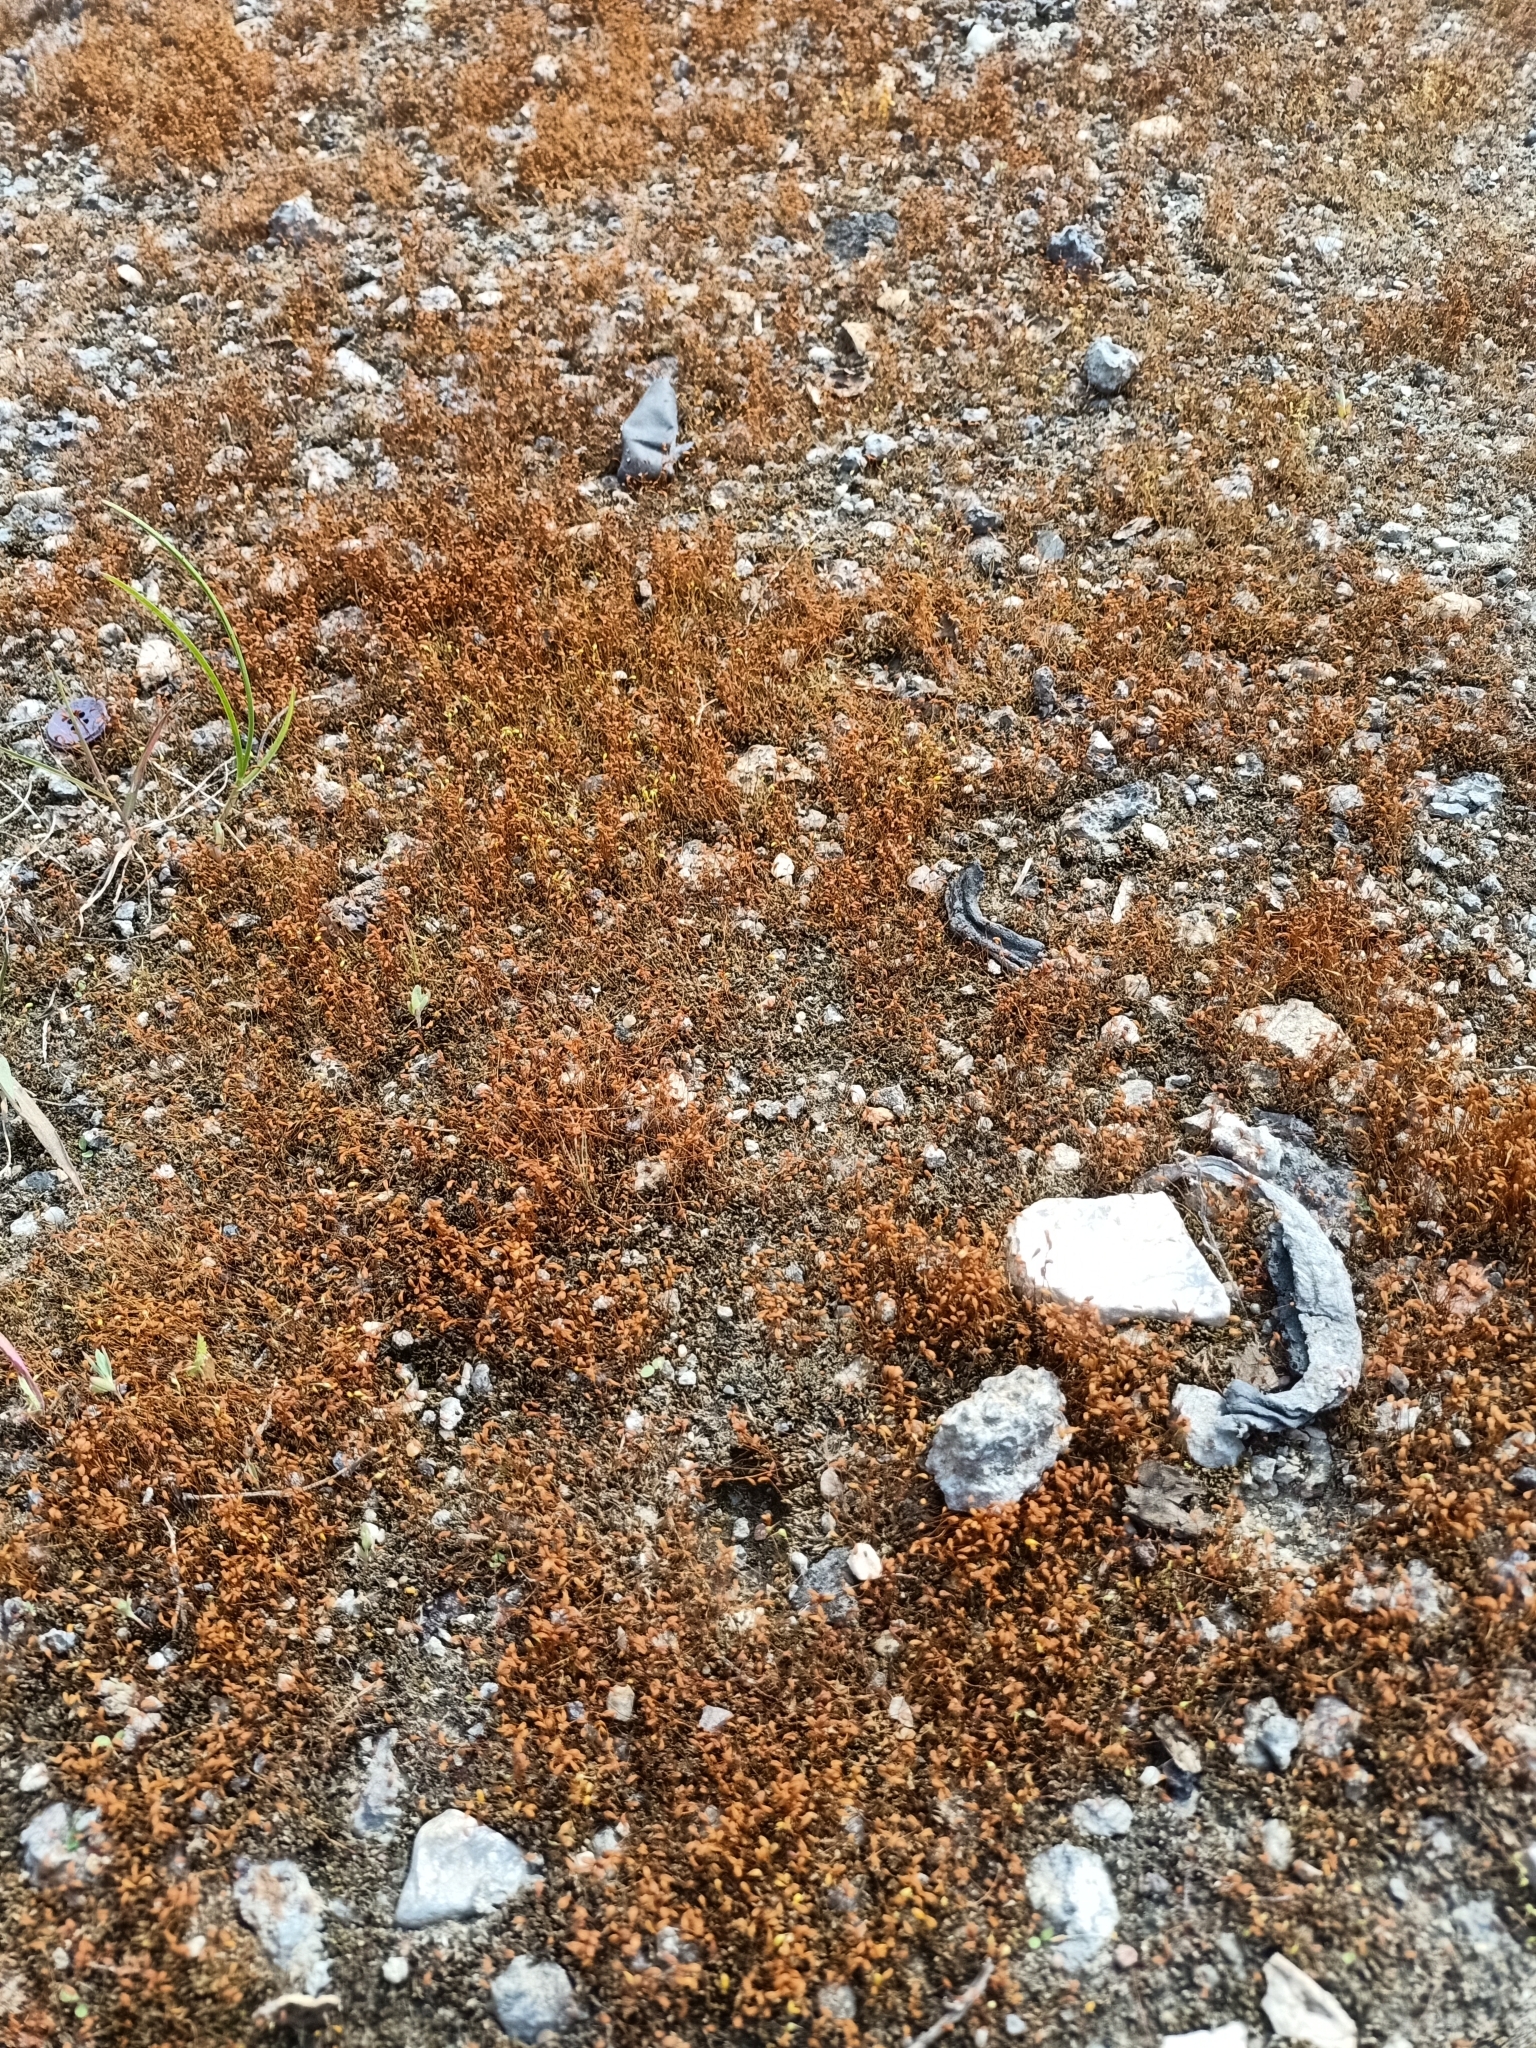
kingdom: Plantae
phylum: Bryophyta
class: Bryopsida
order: Funariales
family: Funariaceae
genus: Funaria
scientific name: Funaria hygrometrica
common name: Common cord moss
